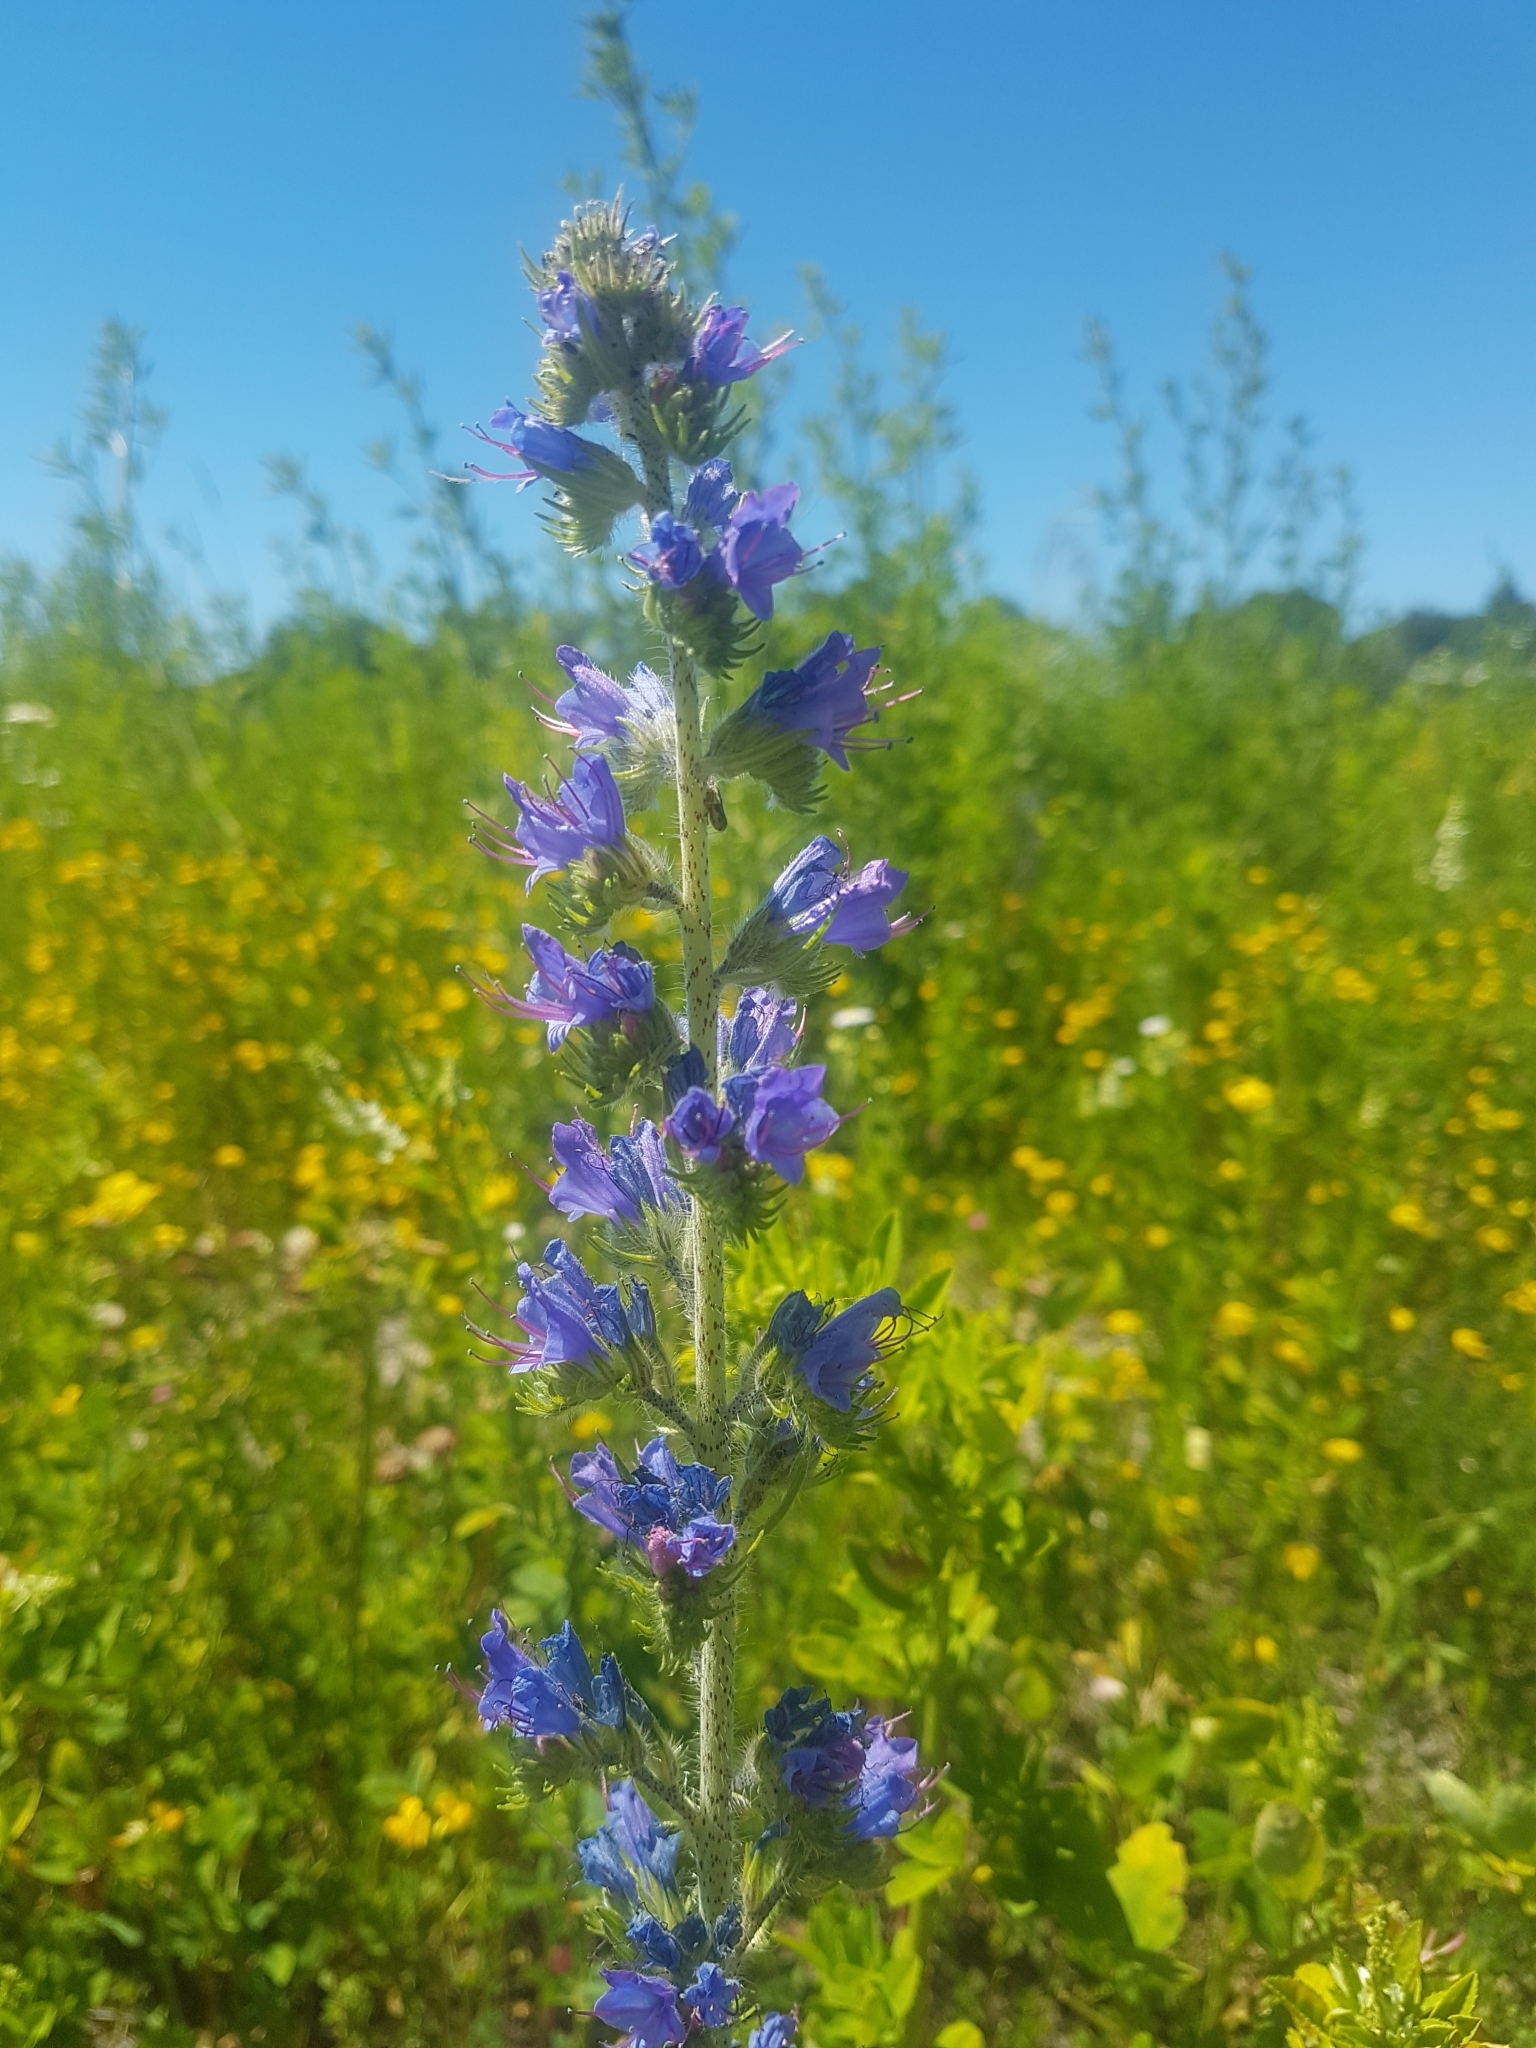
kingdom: Plantae
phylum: Tracheophyta
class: Magnoliopsida
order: Boraginales
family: Boraginaceae
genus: Echium
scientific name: Echium vulgare
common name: Common viper's bugloss
